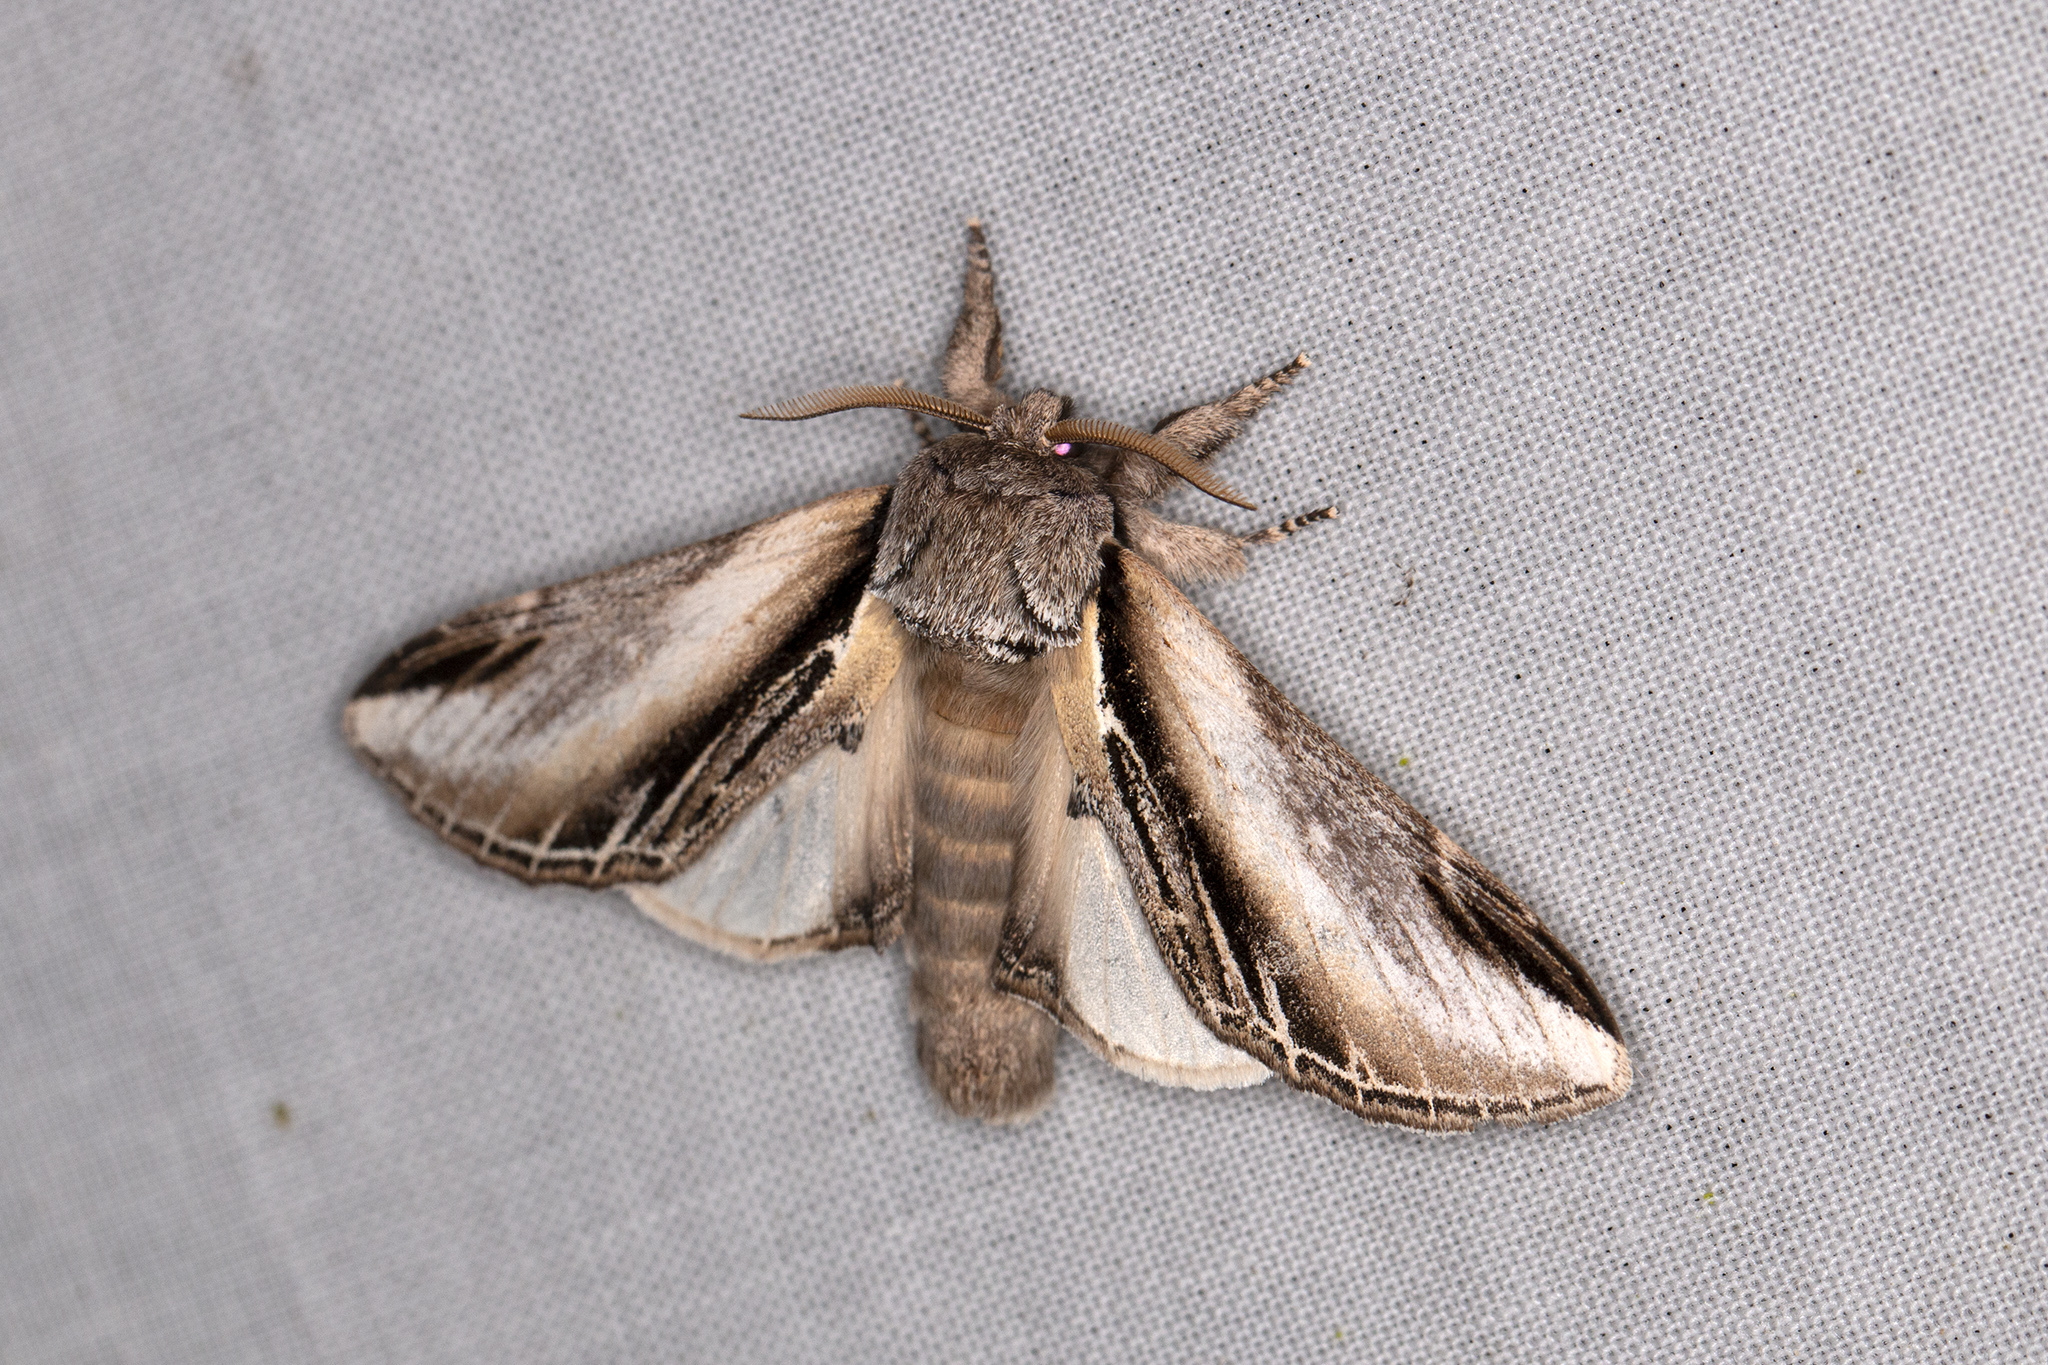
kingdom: Animalia
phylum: Arthropoda
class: Insecta
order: Lepidoptera
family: Notodontidae
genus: Pheosia
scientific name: Pheosia tremula
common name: Swallow prominent
